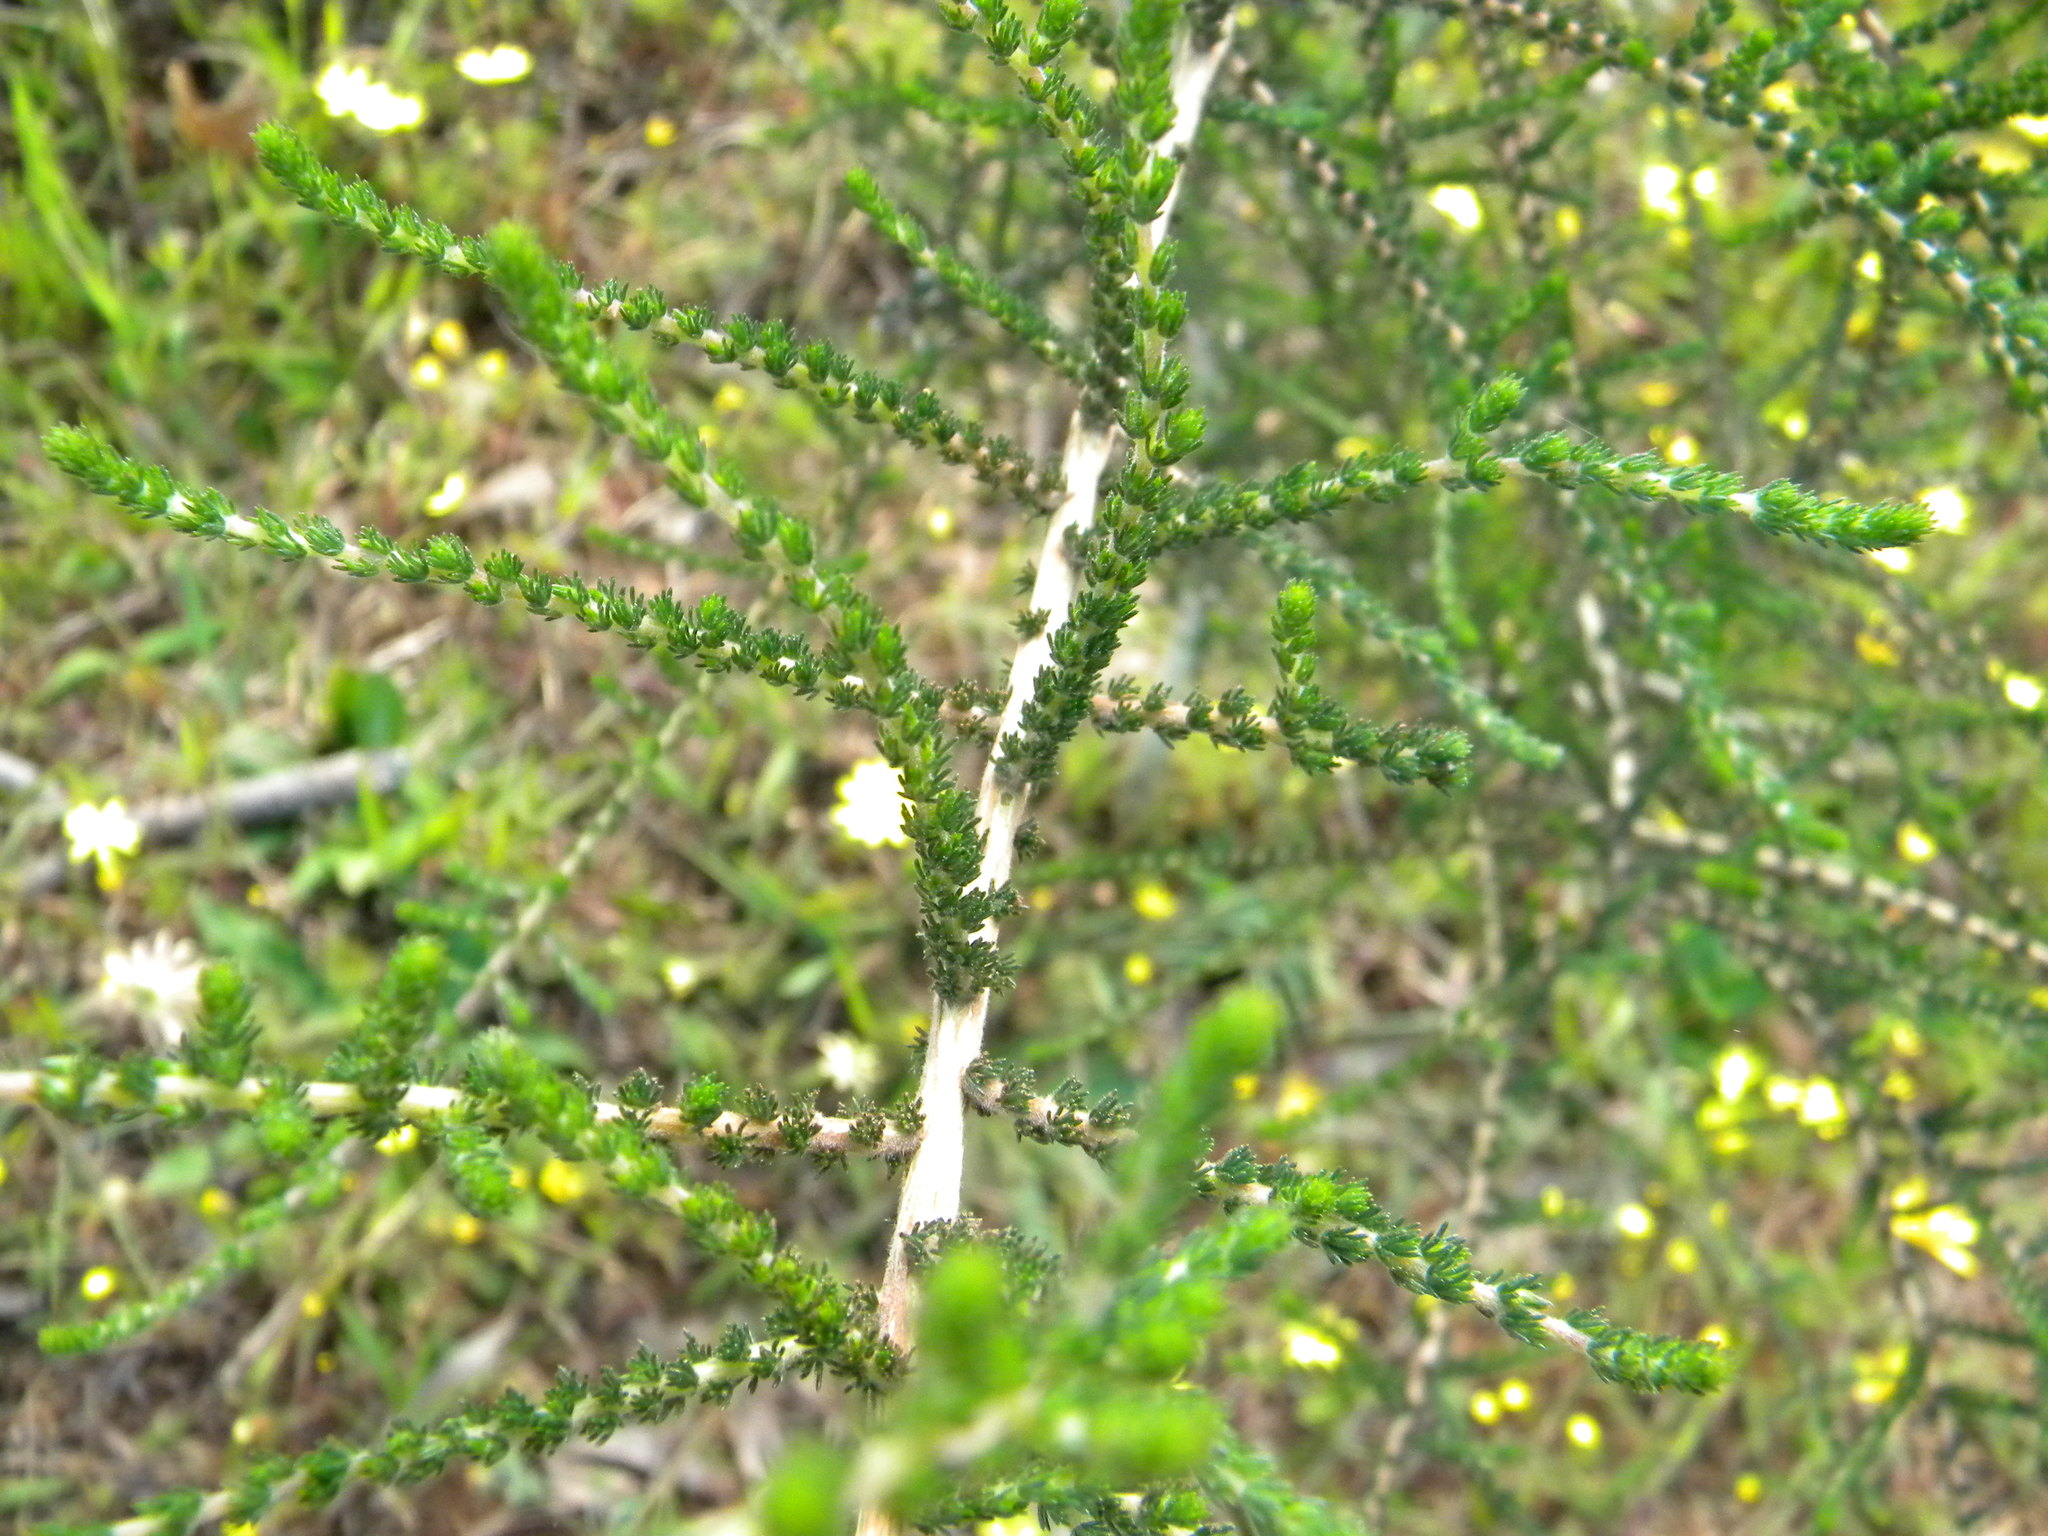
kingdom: Plantae
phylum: Tracheophyta
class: Magnoliopsida
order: Fabales
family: Fabaceae
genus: Aspalathus
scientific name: Aspalathus hispida
